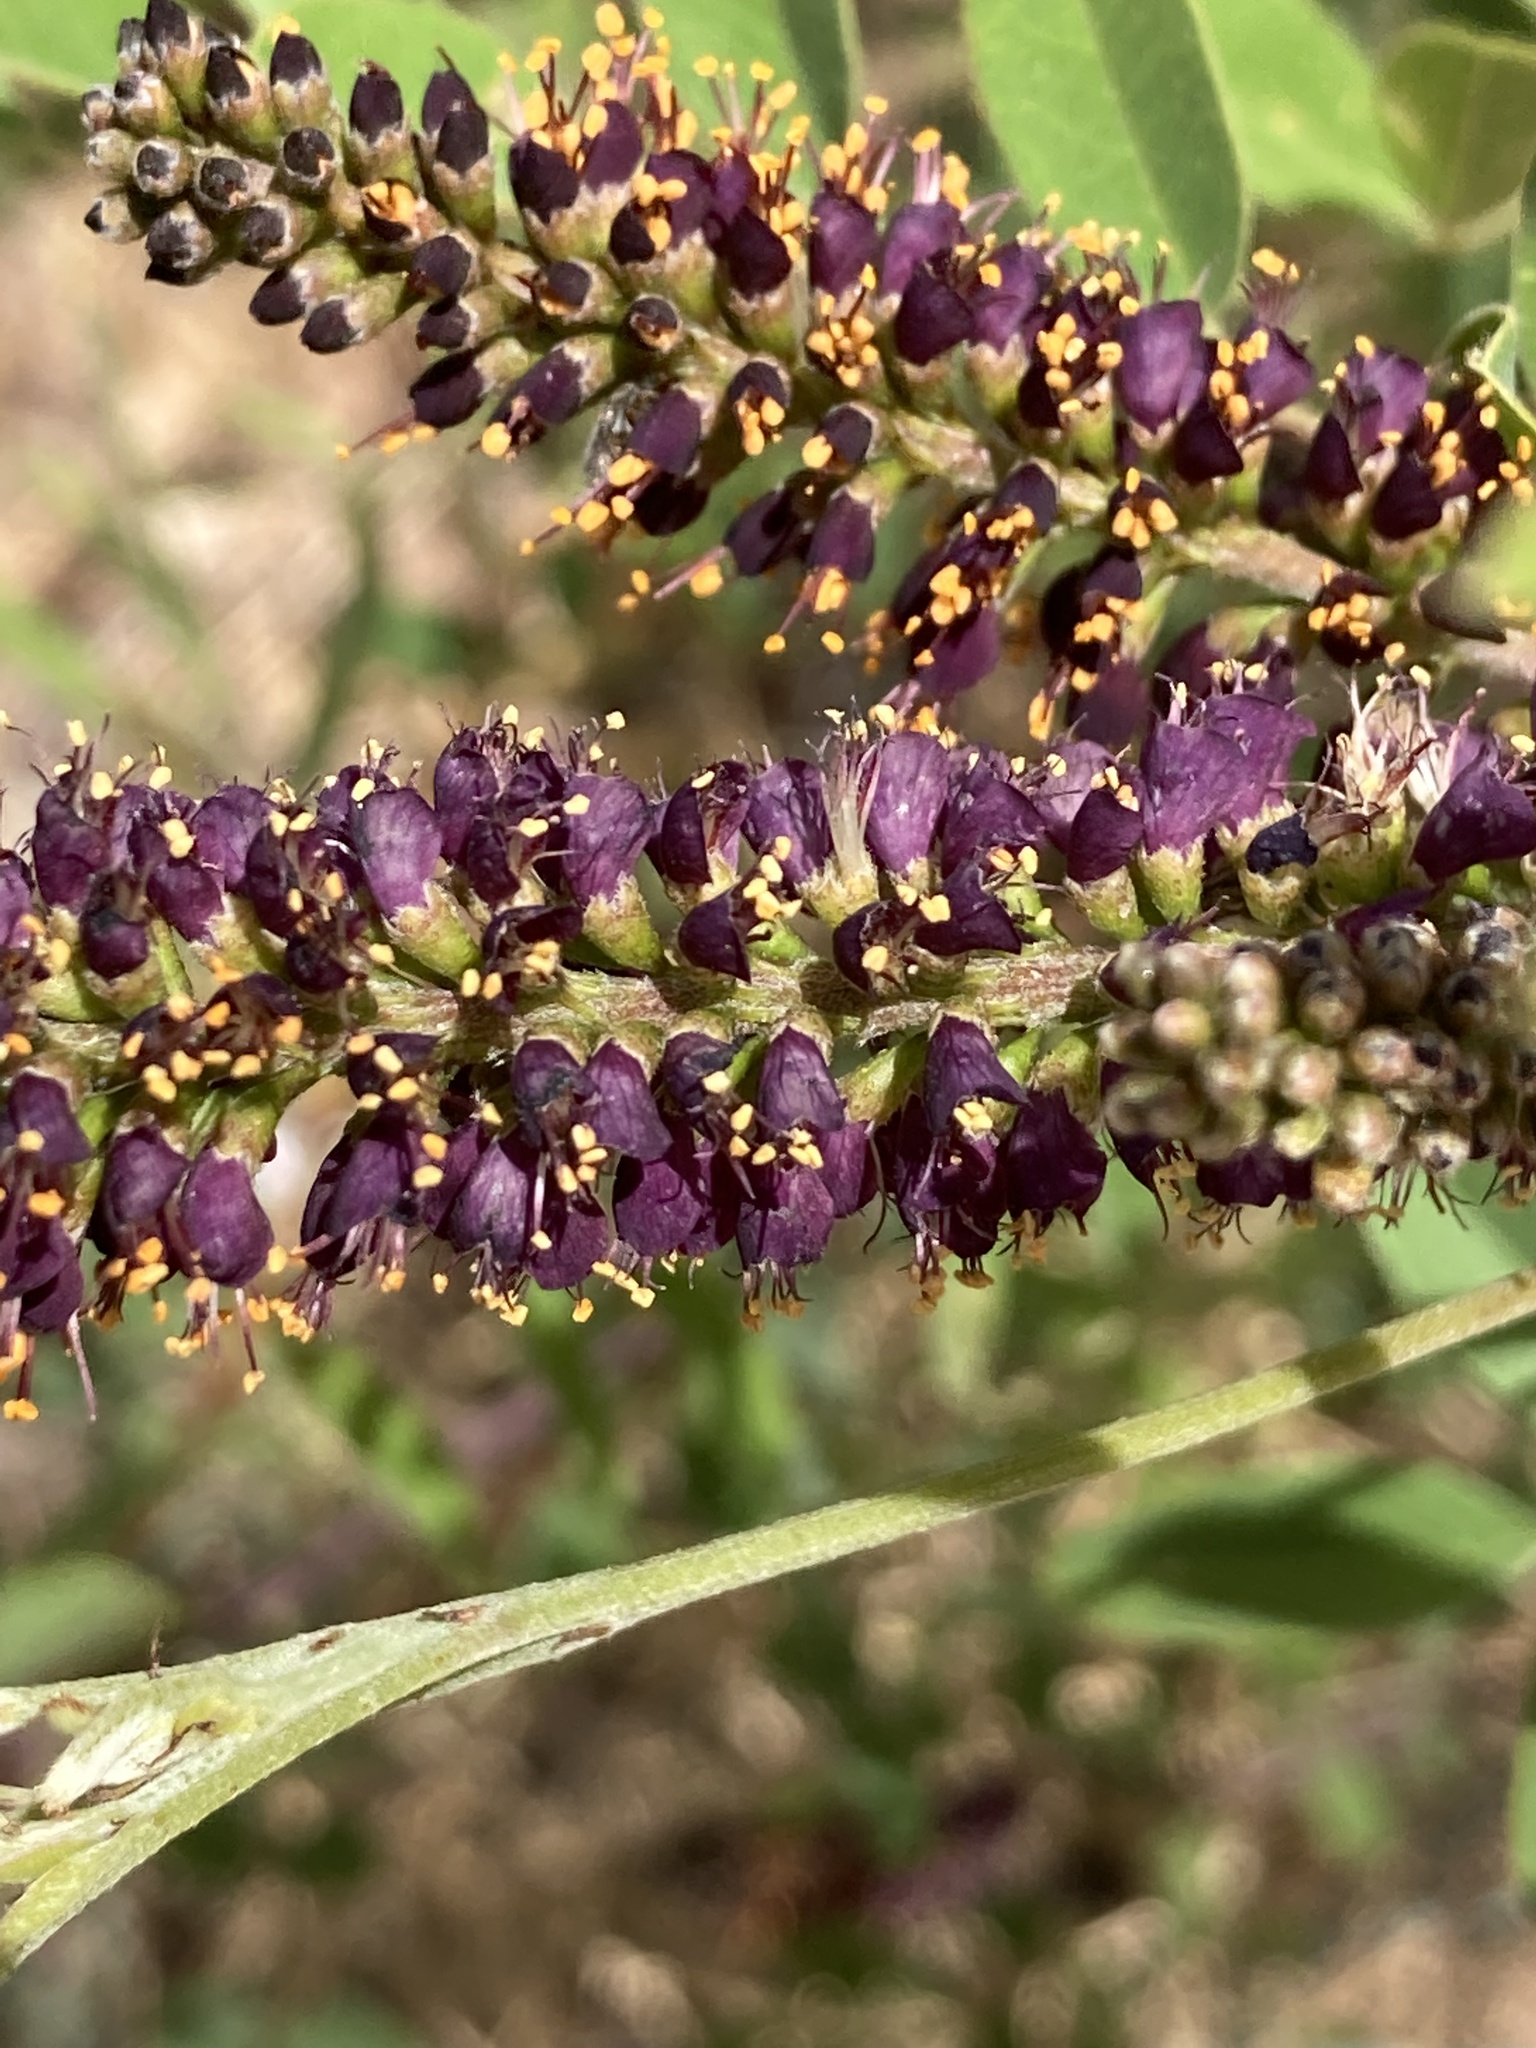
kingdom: Plantae
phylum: Tracheophyta
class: Magnoliopsida
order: Fabales
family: Fabaceae
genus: Amorpha
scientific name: Amorpha fruticosa
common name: False indigo
